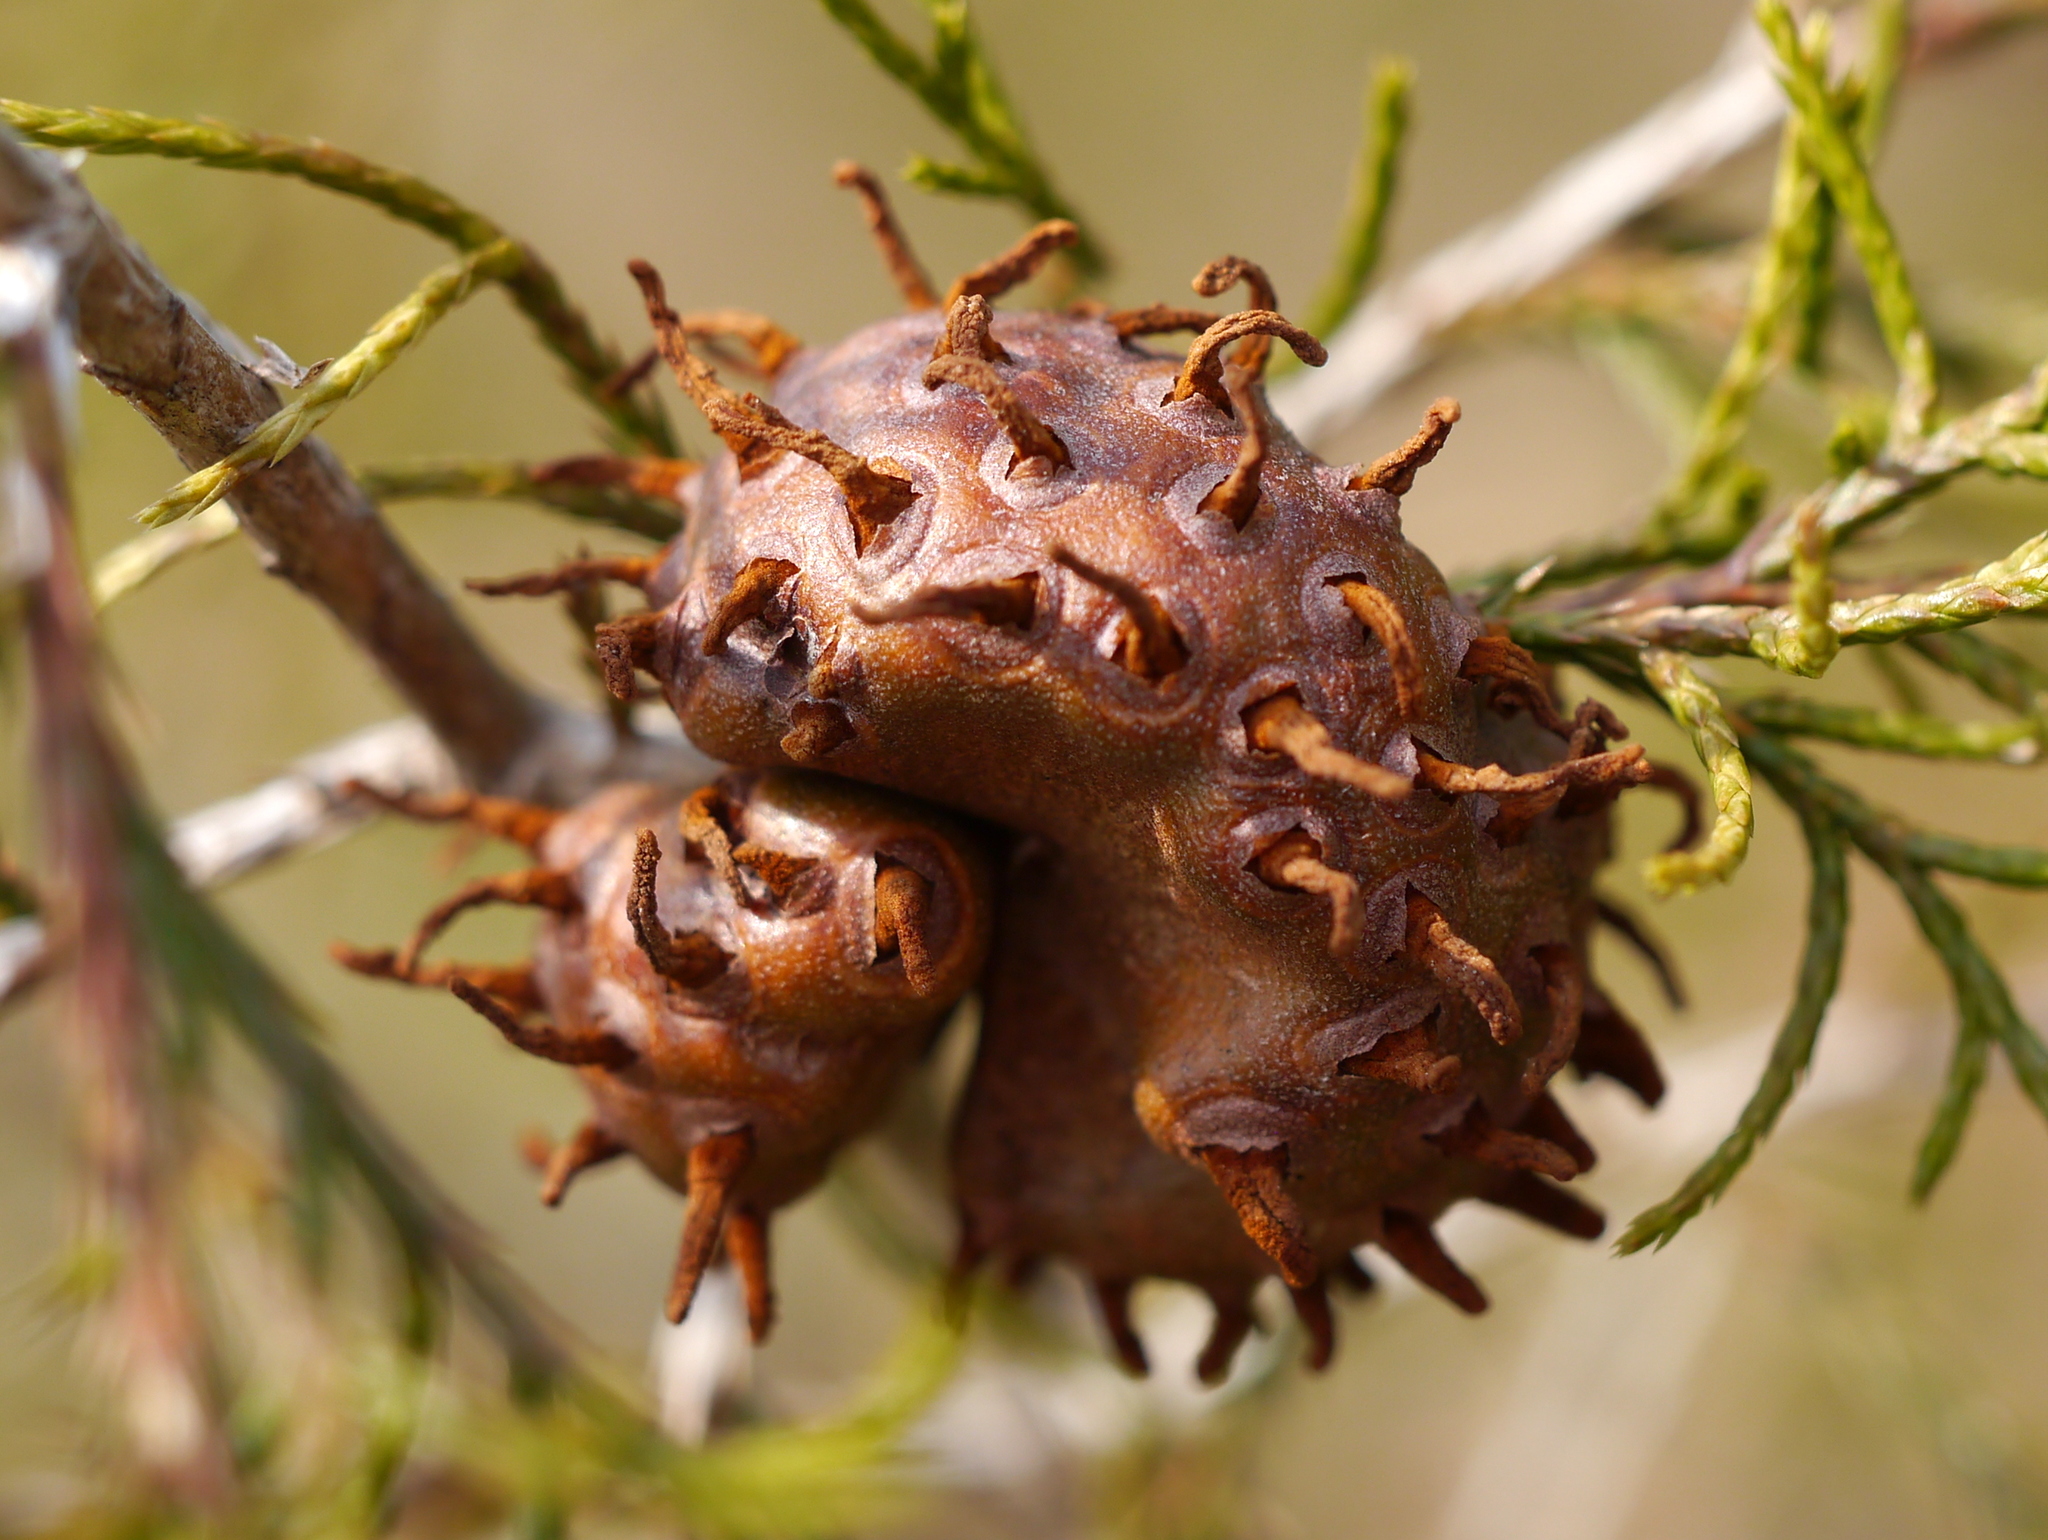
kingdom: Fungi
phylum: Basidiomycota
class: Pucciniomycetes
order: Pucciniales
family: Gymnosporangiaceae
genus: Gymnosporangium
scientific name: Gymnosporangium juniperi-virginianae
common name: Juniper-apple rust
